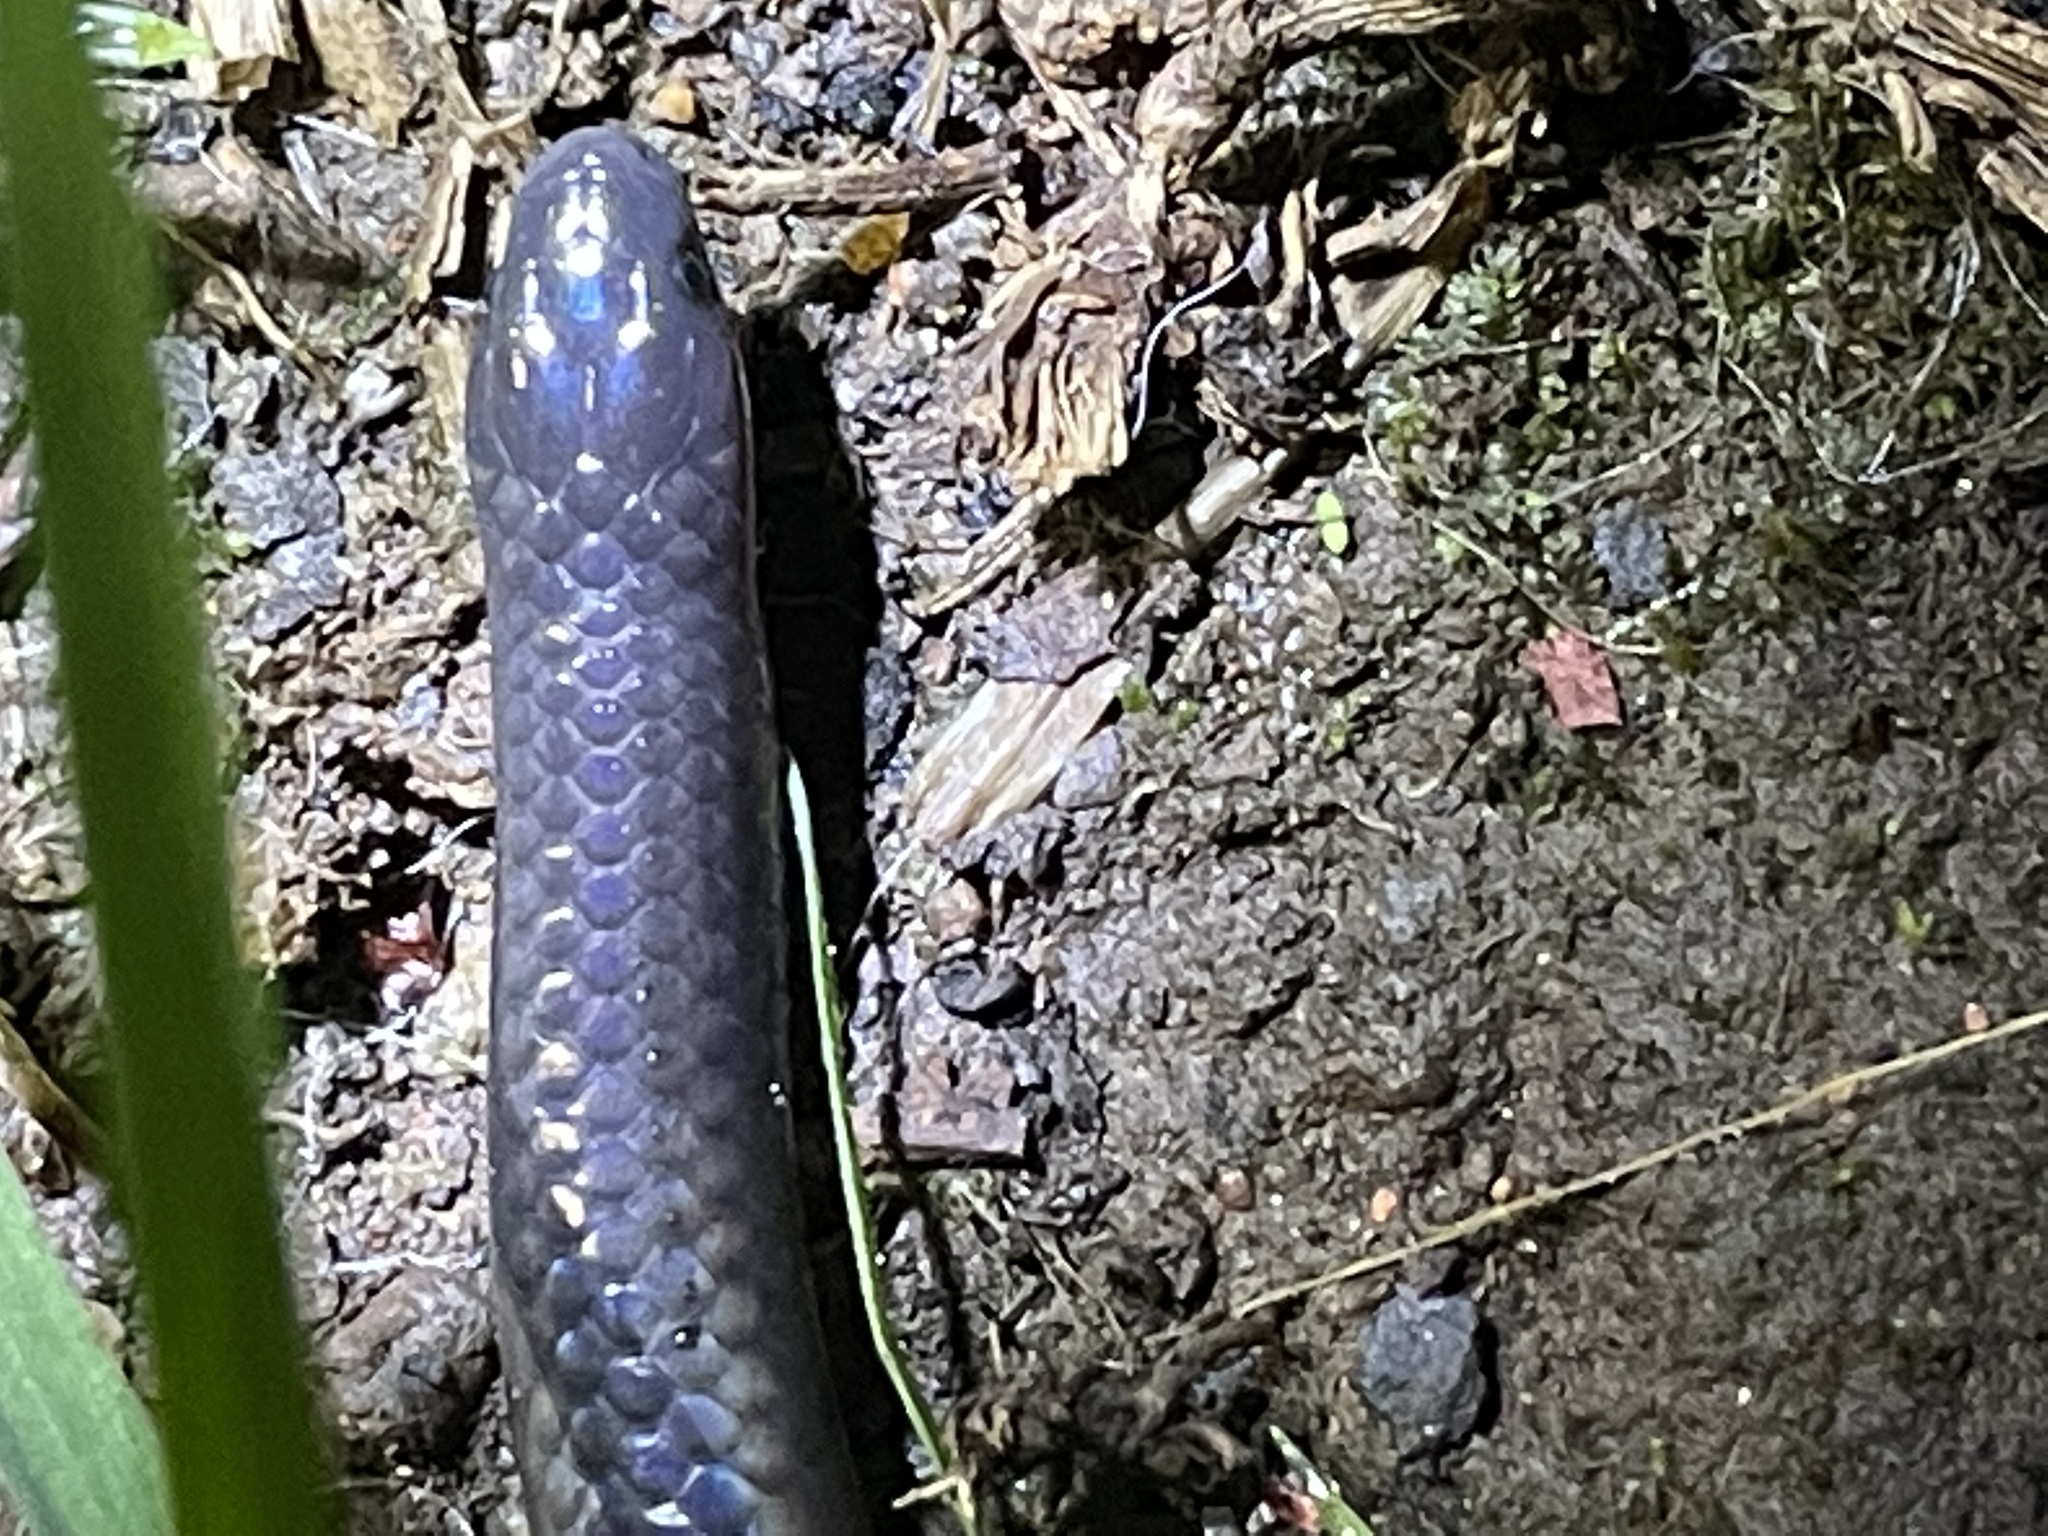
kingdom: Animalia
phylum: Chordata
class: Squamata
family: Uropeltidae
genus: Platyplectrurus
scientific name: Platyplectrurus madurensis
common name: Travancore hills thorntail snake
